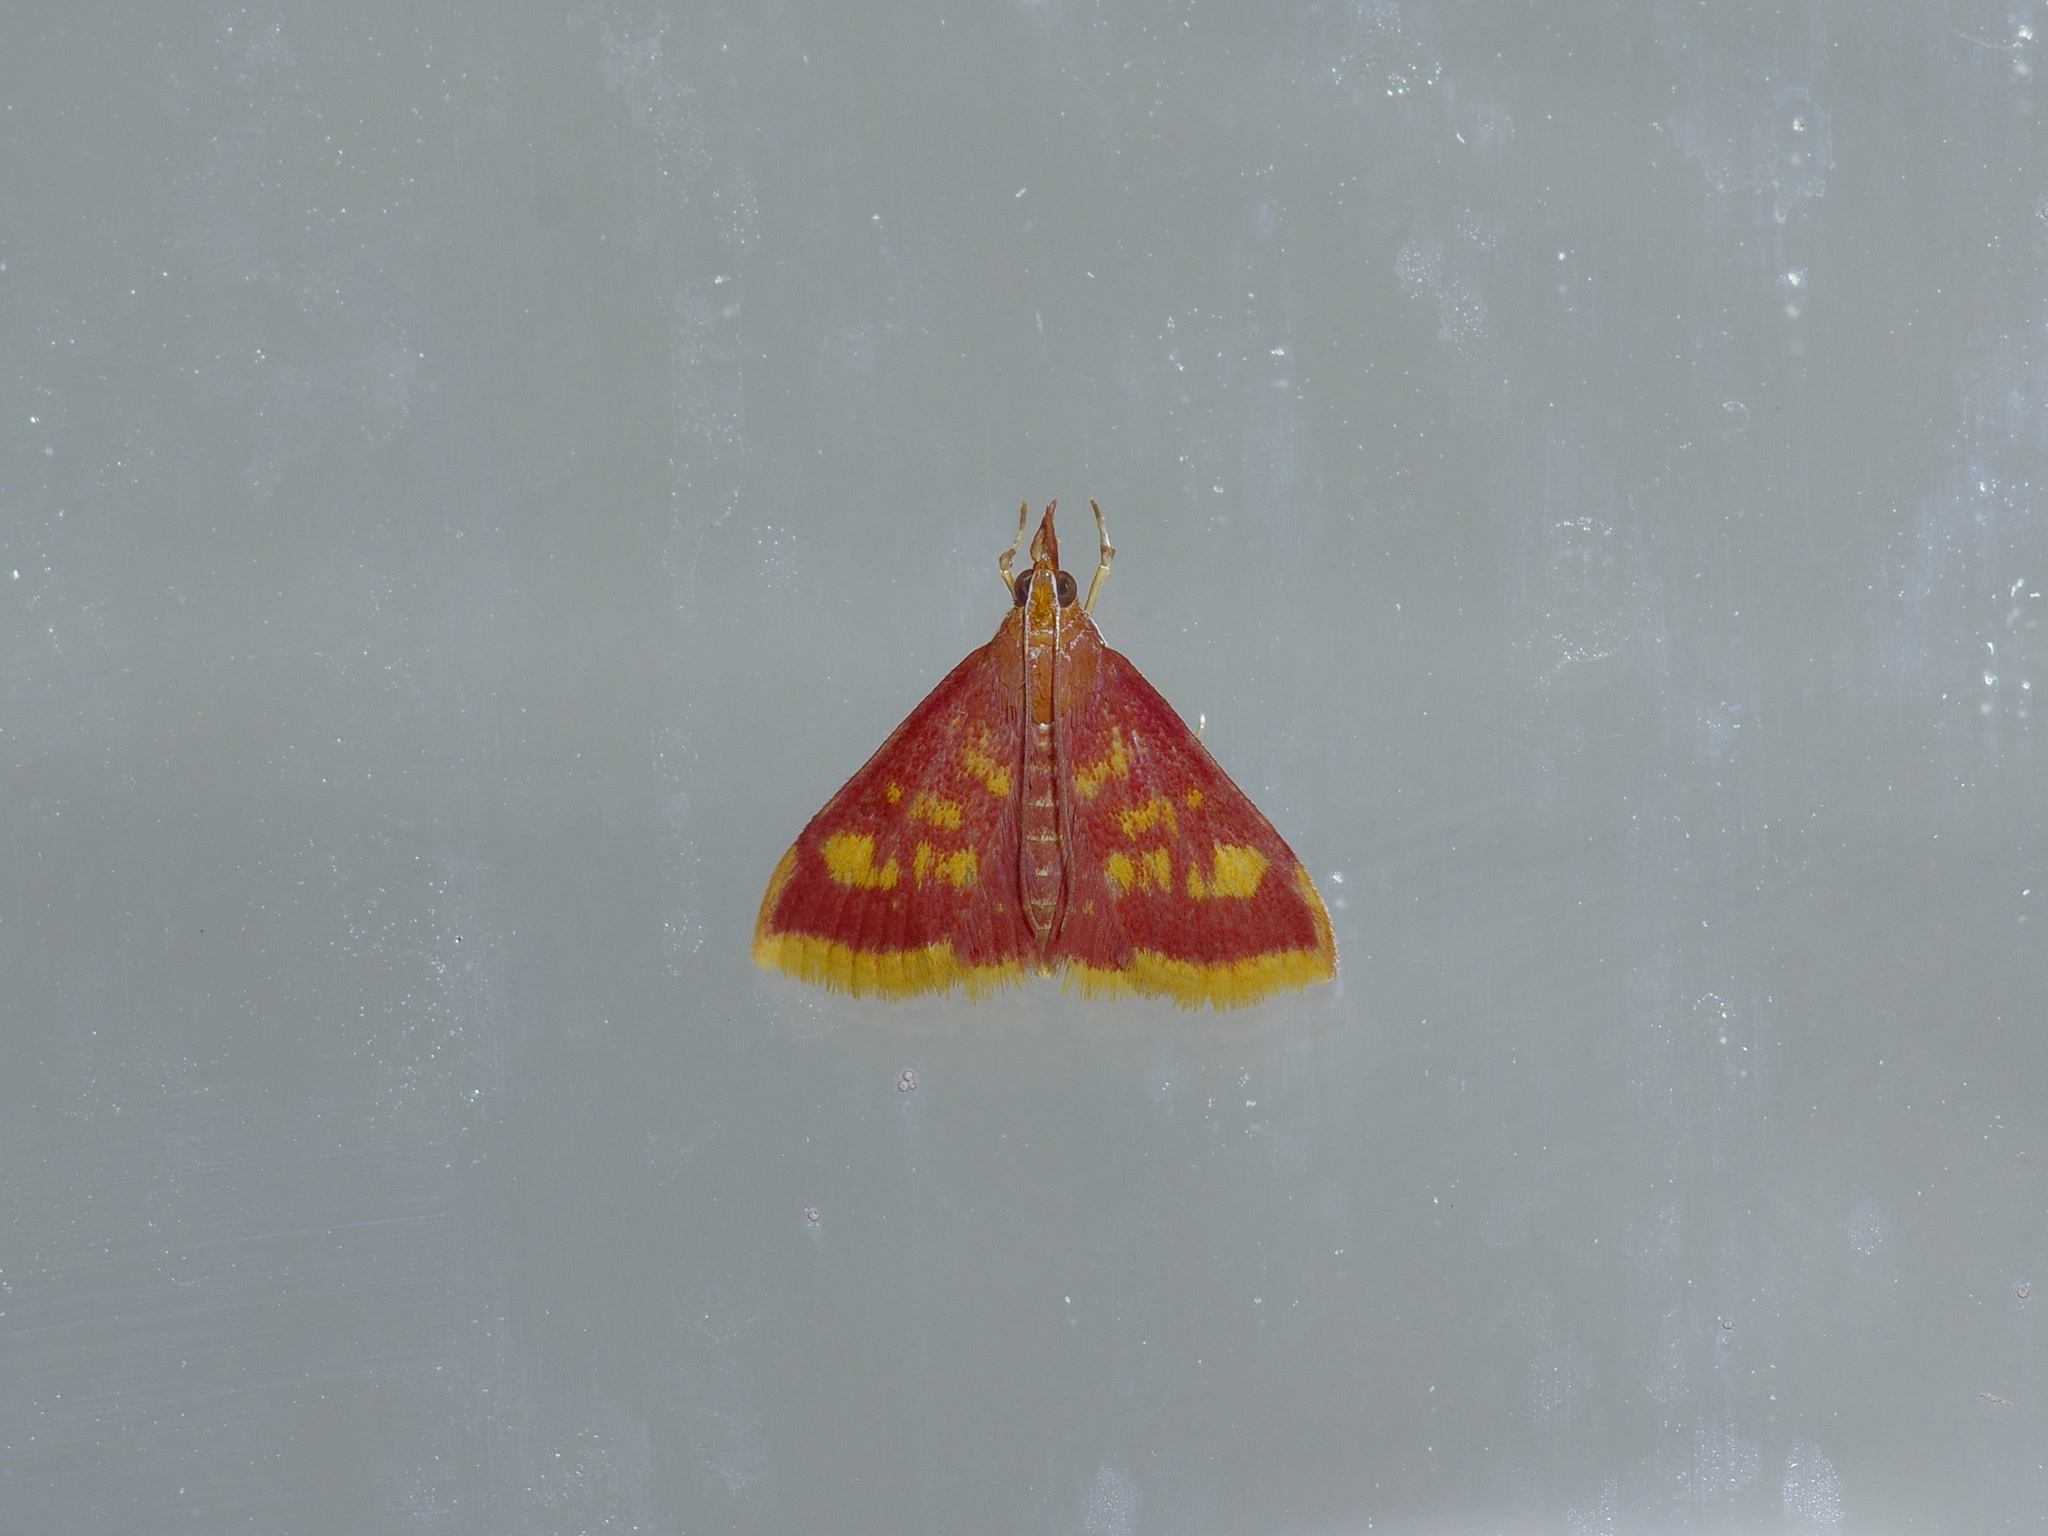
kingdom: Animalia
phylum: Arthropoda
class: Insecta
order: Lepidoptera
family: Crambidae
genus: Pyrausta
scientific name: Pyrausta acrionalis
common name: Mint-loving pyrausta moth
